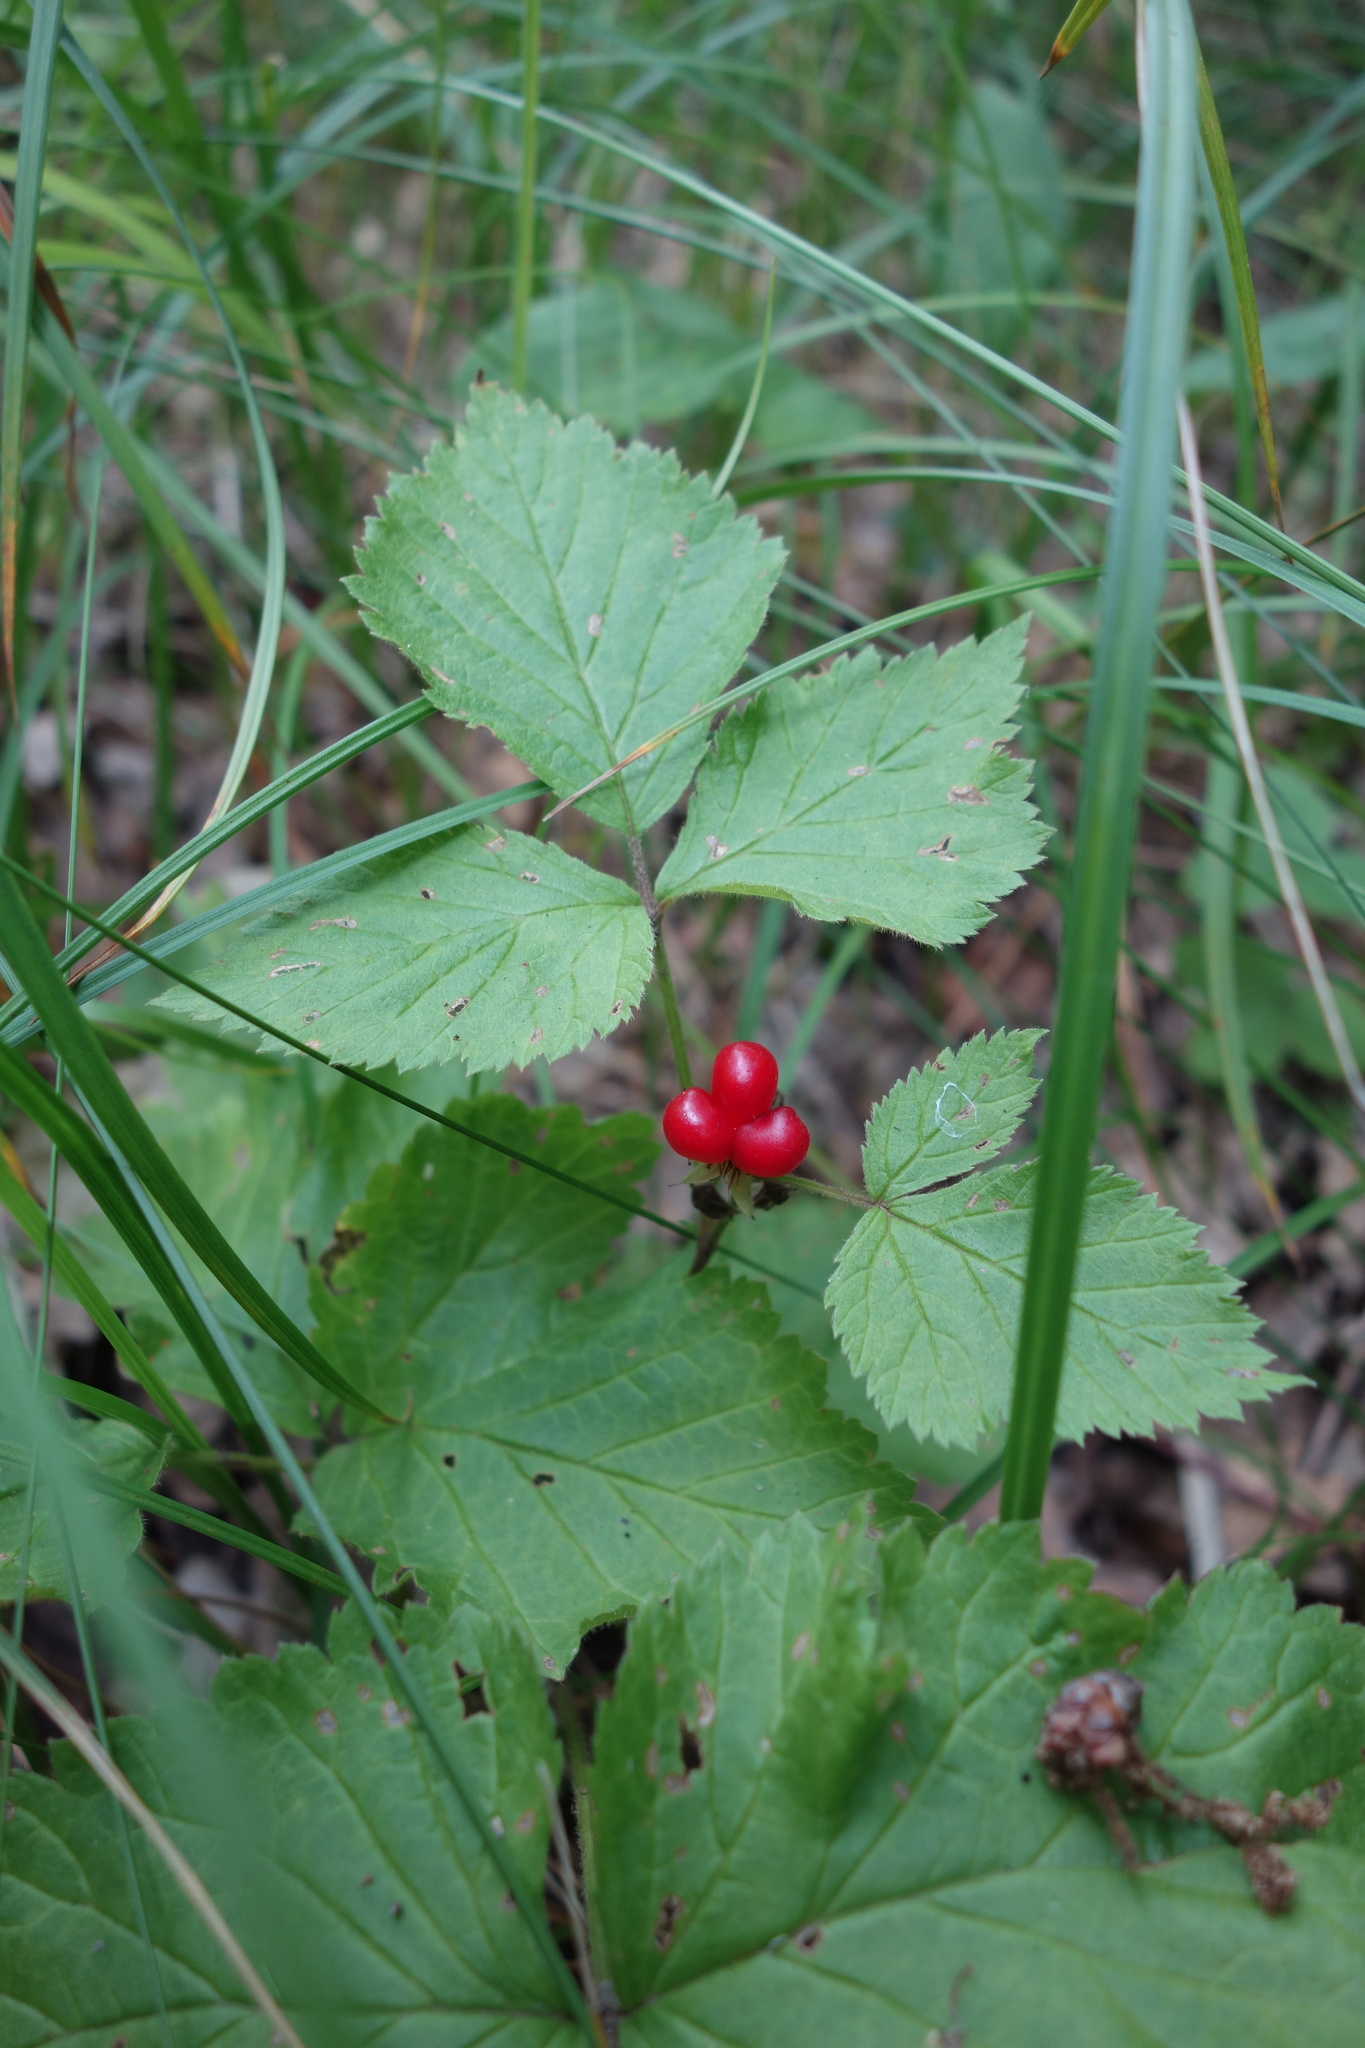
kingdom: Plantae
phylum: Tracheophyta
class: Magnoliopsida
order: Rosales
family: Rosaceae
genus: Rubus
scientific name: Rubus saxatilis
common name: Stone bramble
